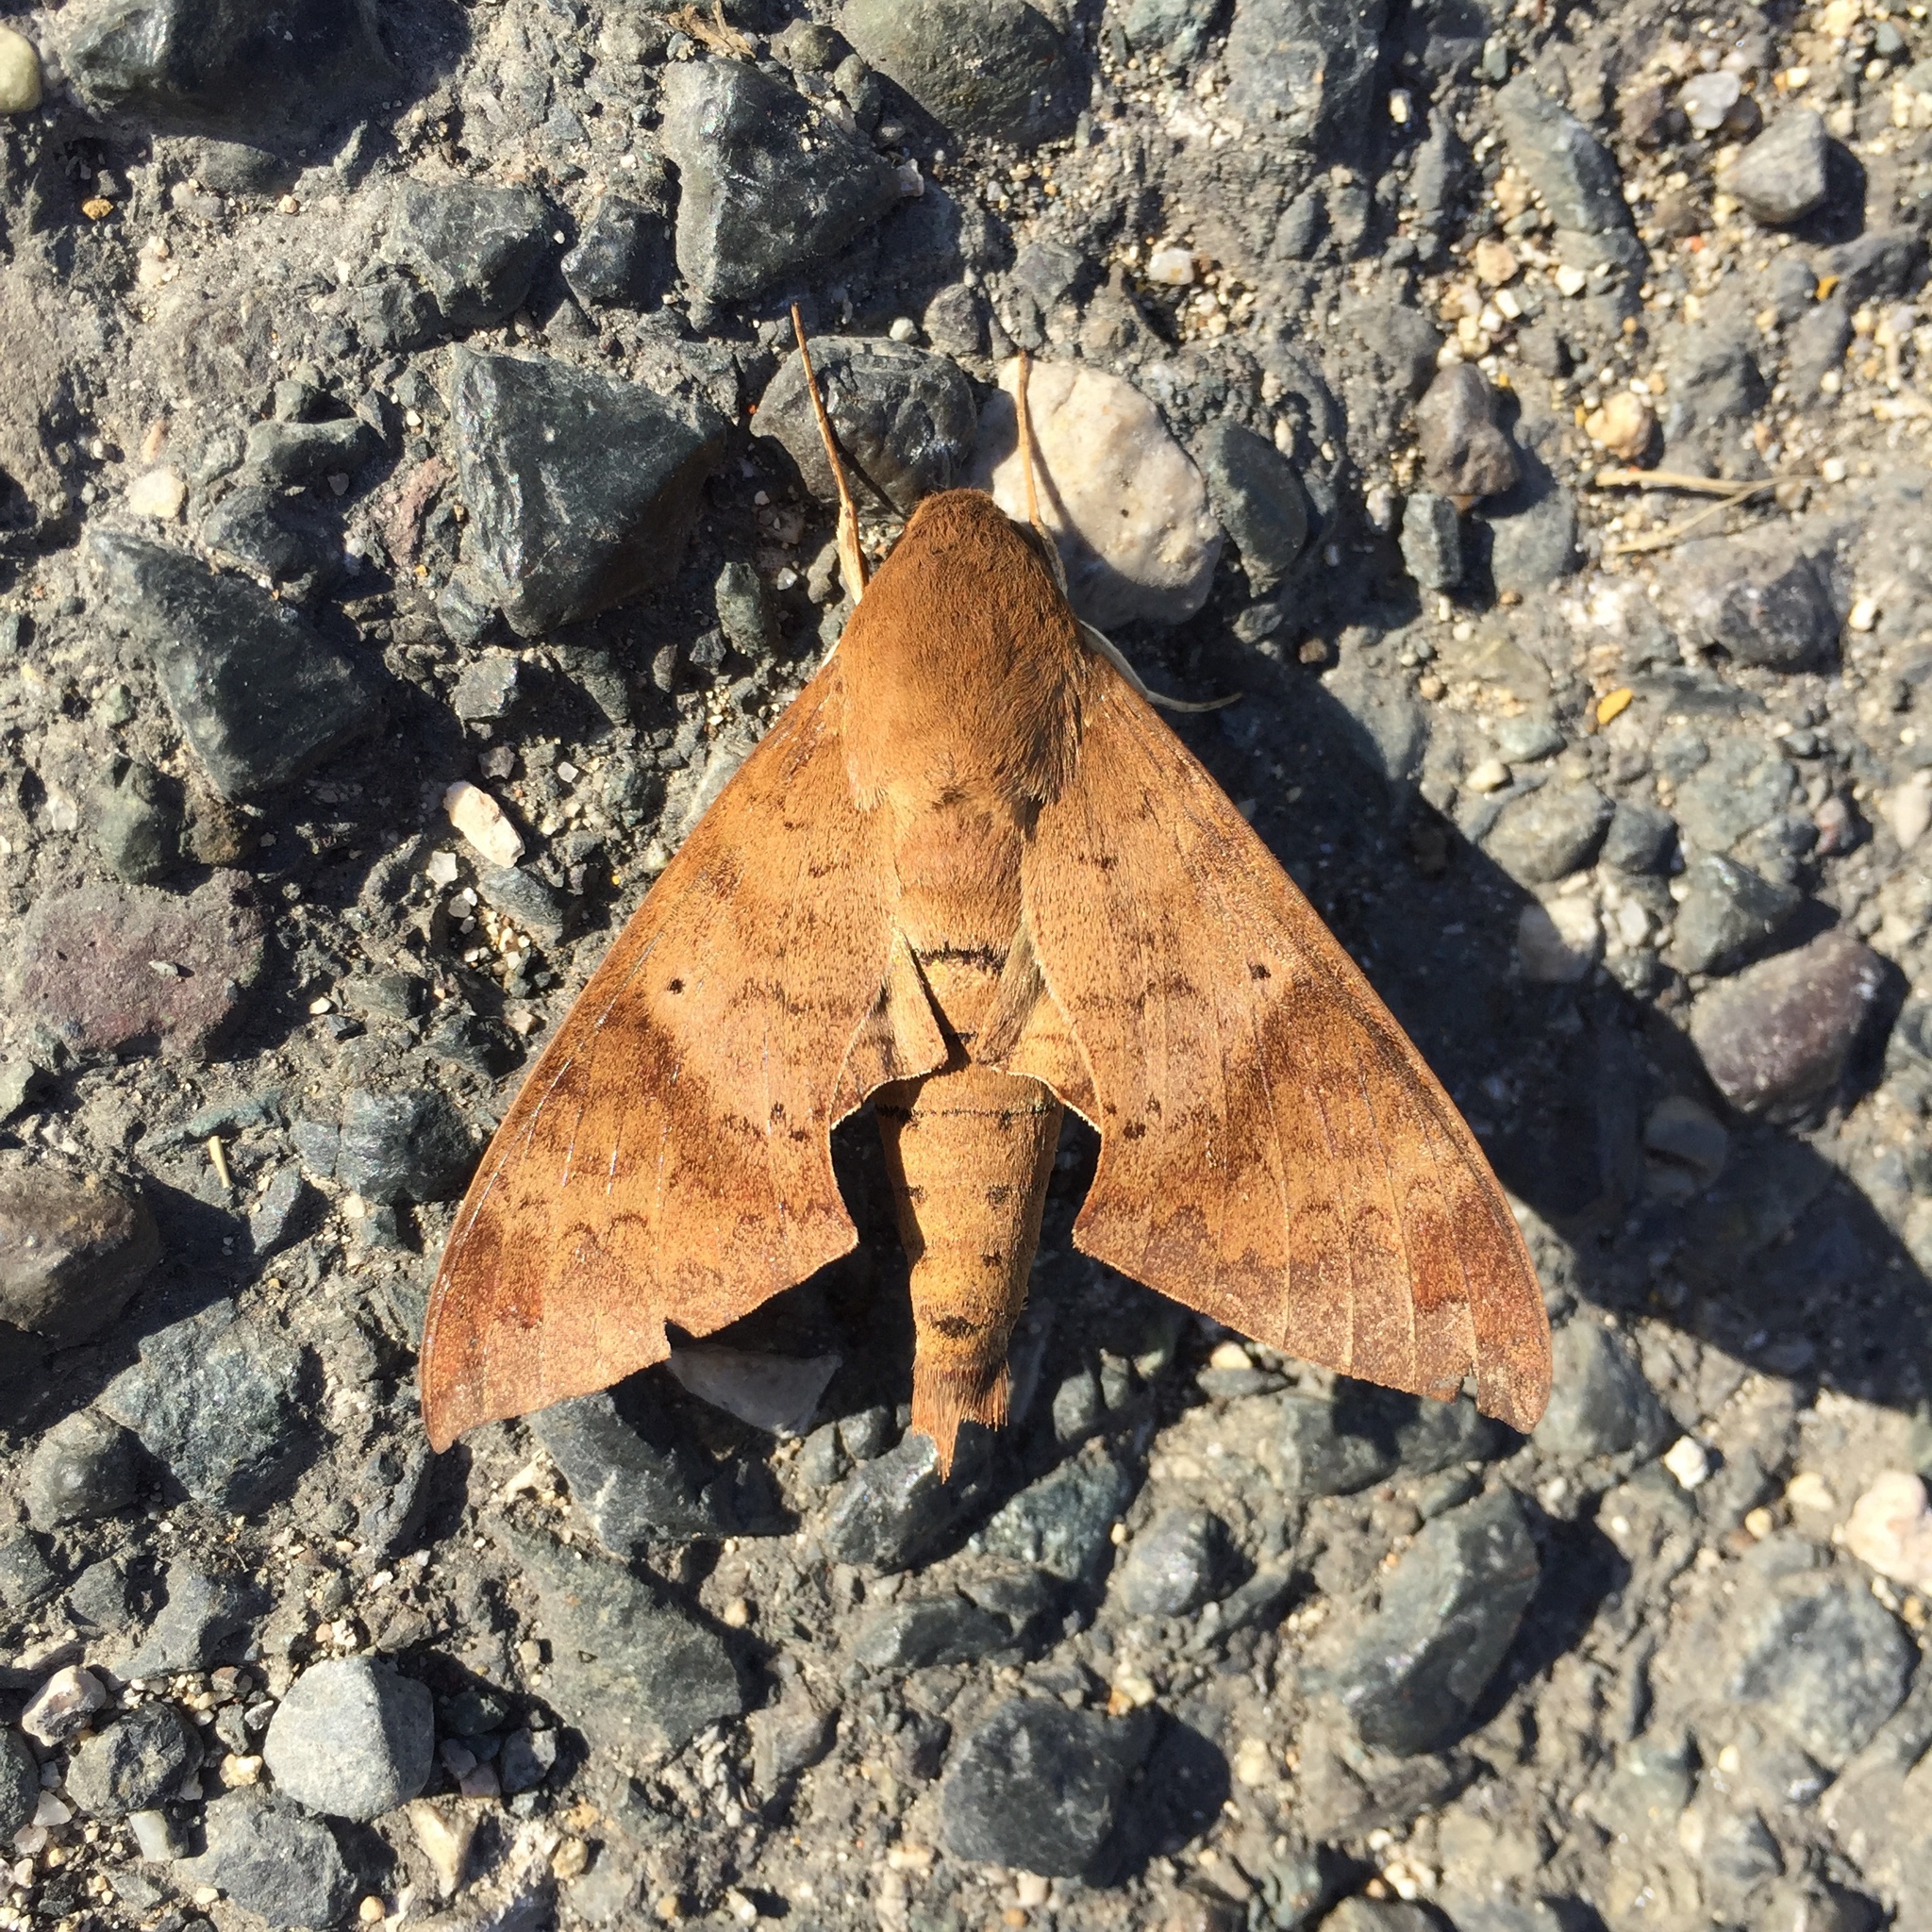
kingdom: Animalia
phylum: Arthropoda
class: Insecta
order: Lepidoptera
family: Sphingidae
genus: Pachylioides
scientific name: Pachylioides resumens
